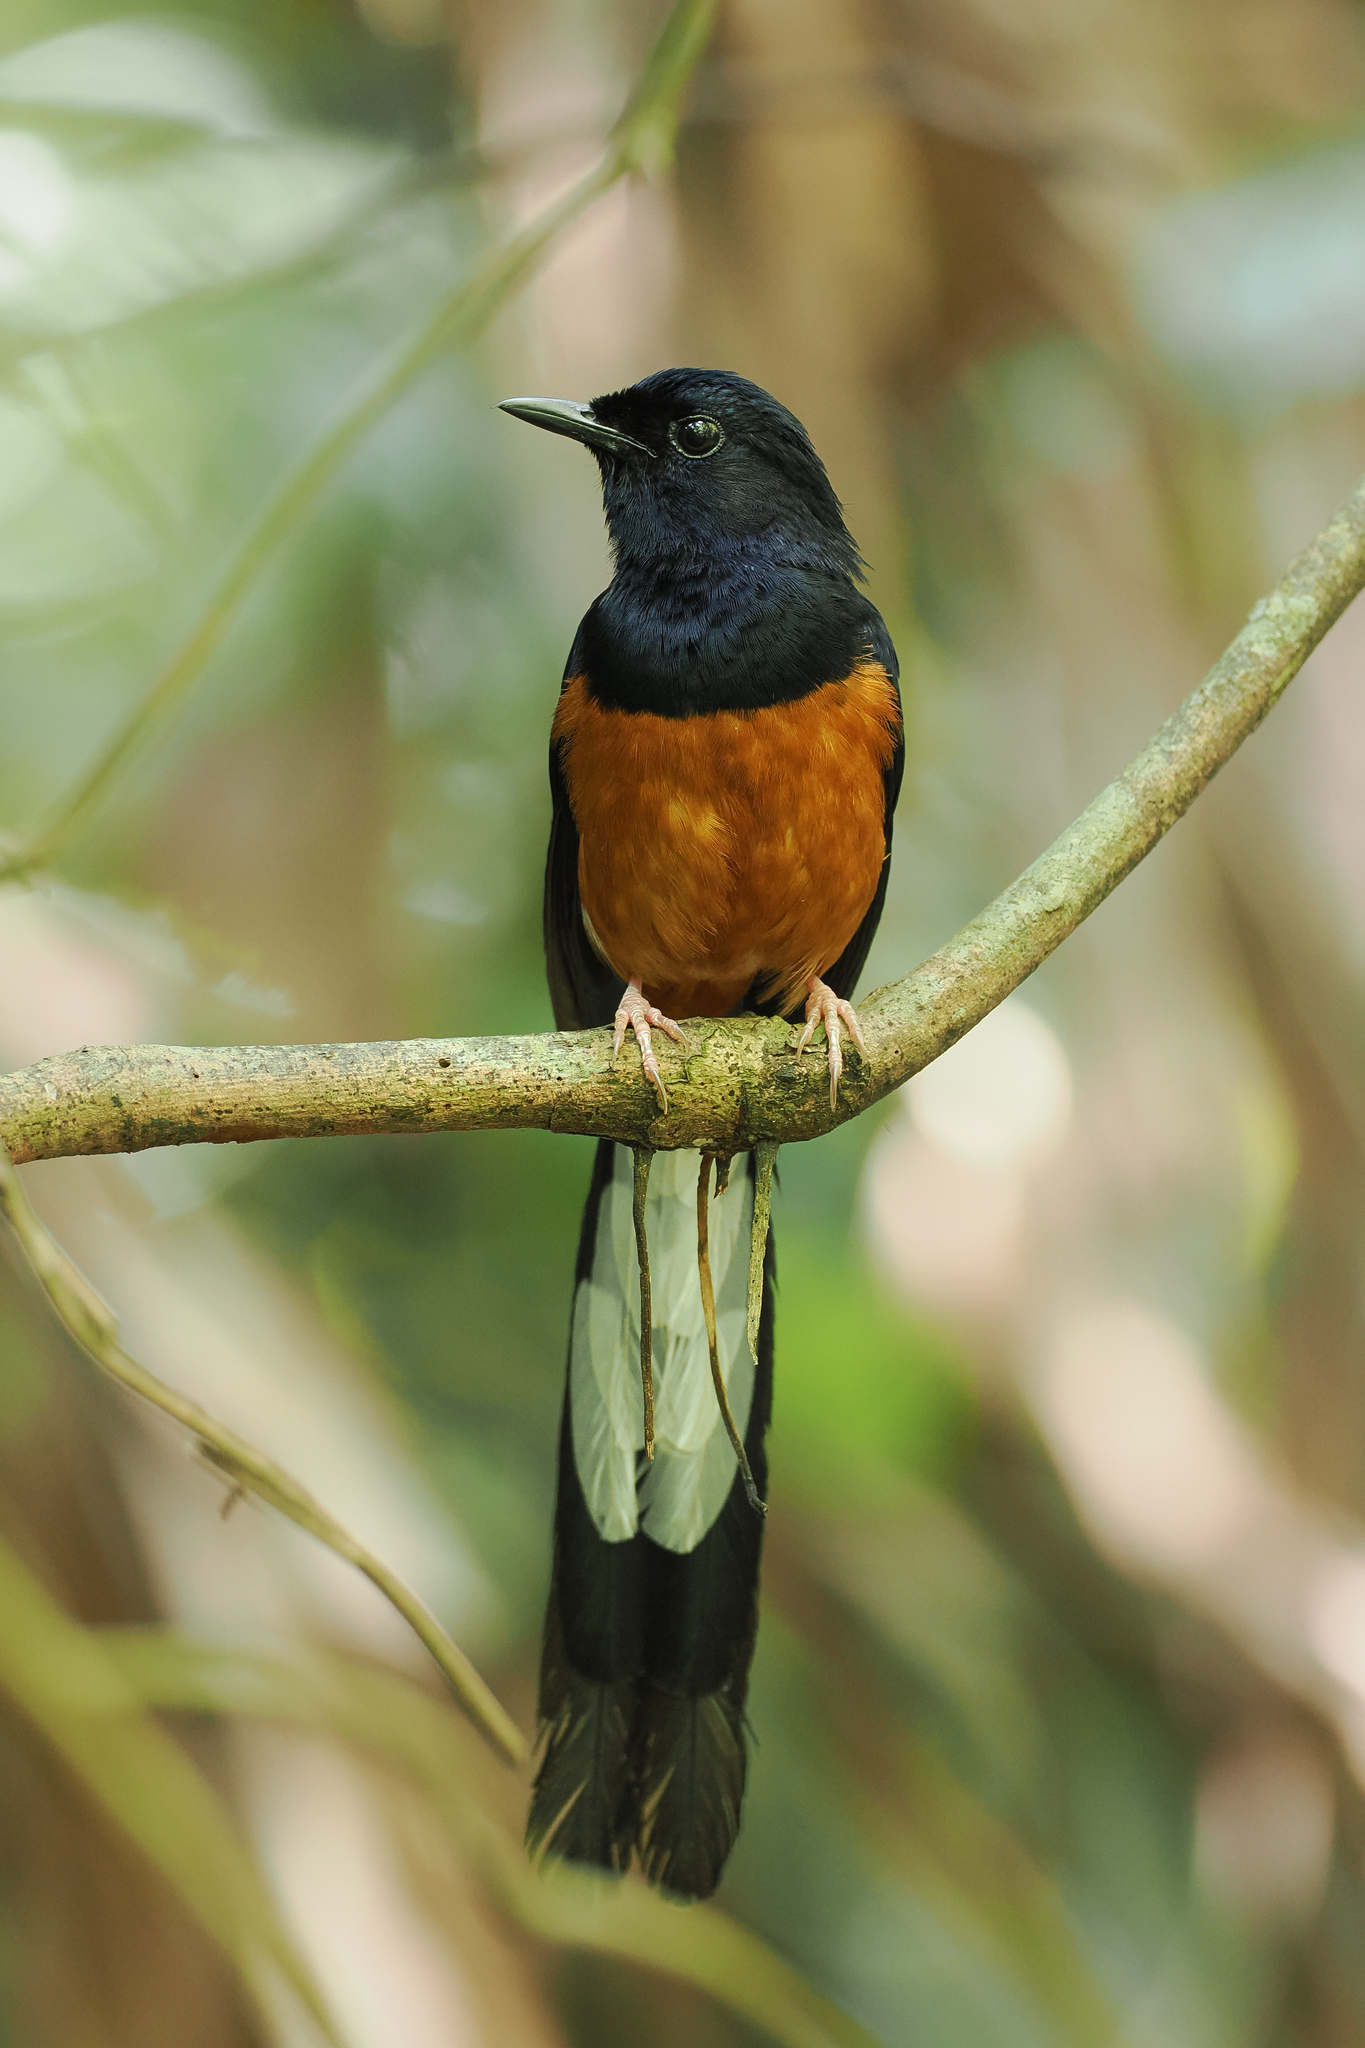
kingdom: Animalia
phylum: Chordata
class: Aves
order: Passeriformes
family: Muscicapidae
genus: Copsychus
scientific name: Copsychus malabaricus
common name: White-rumped shama
